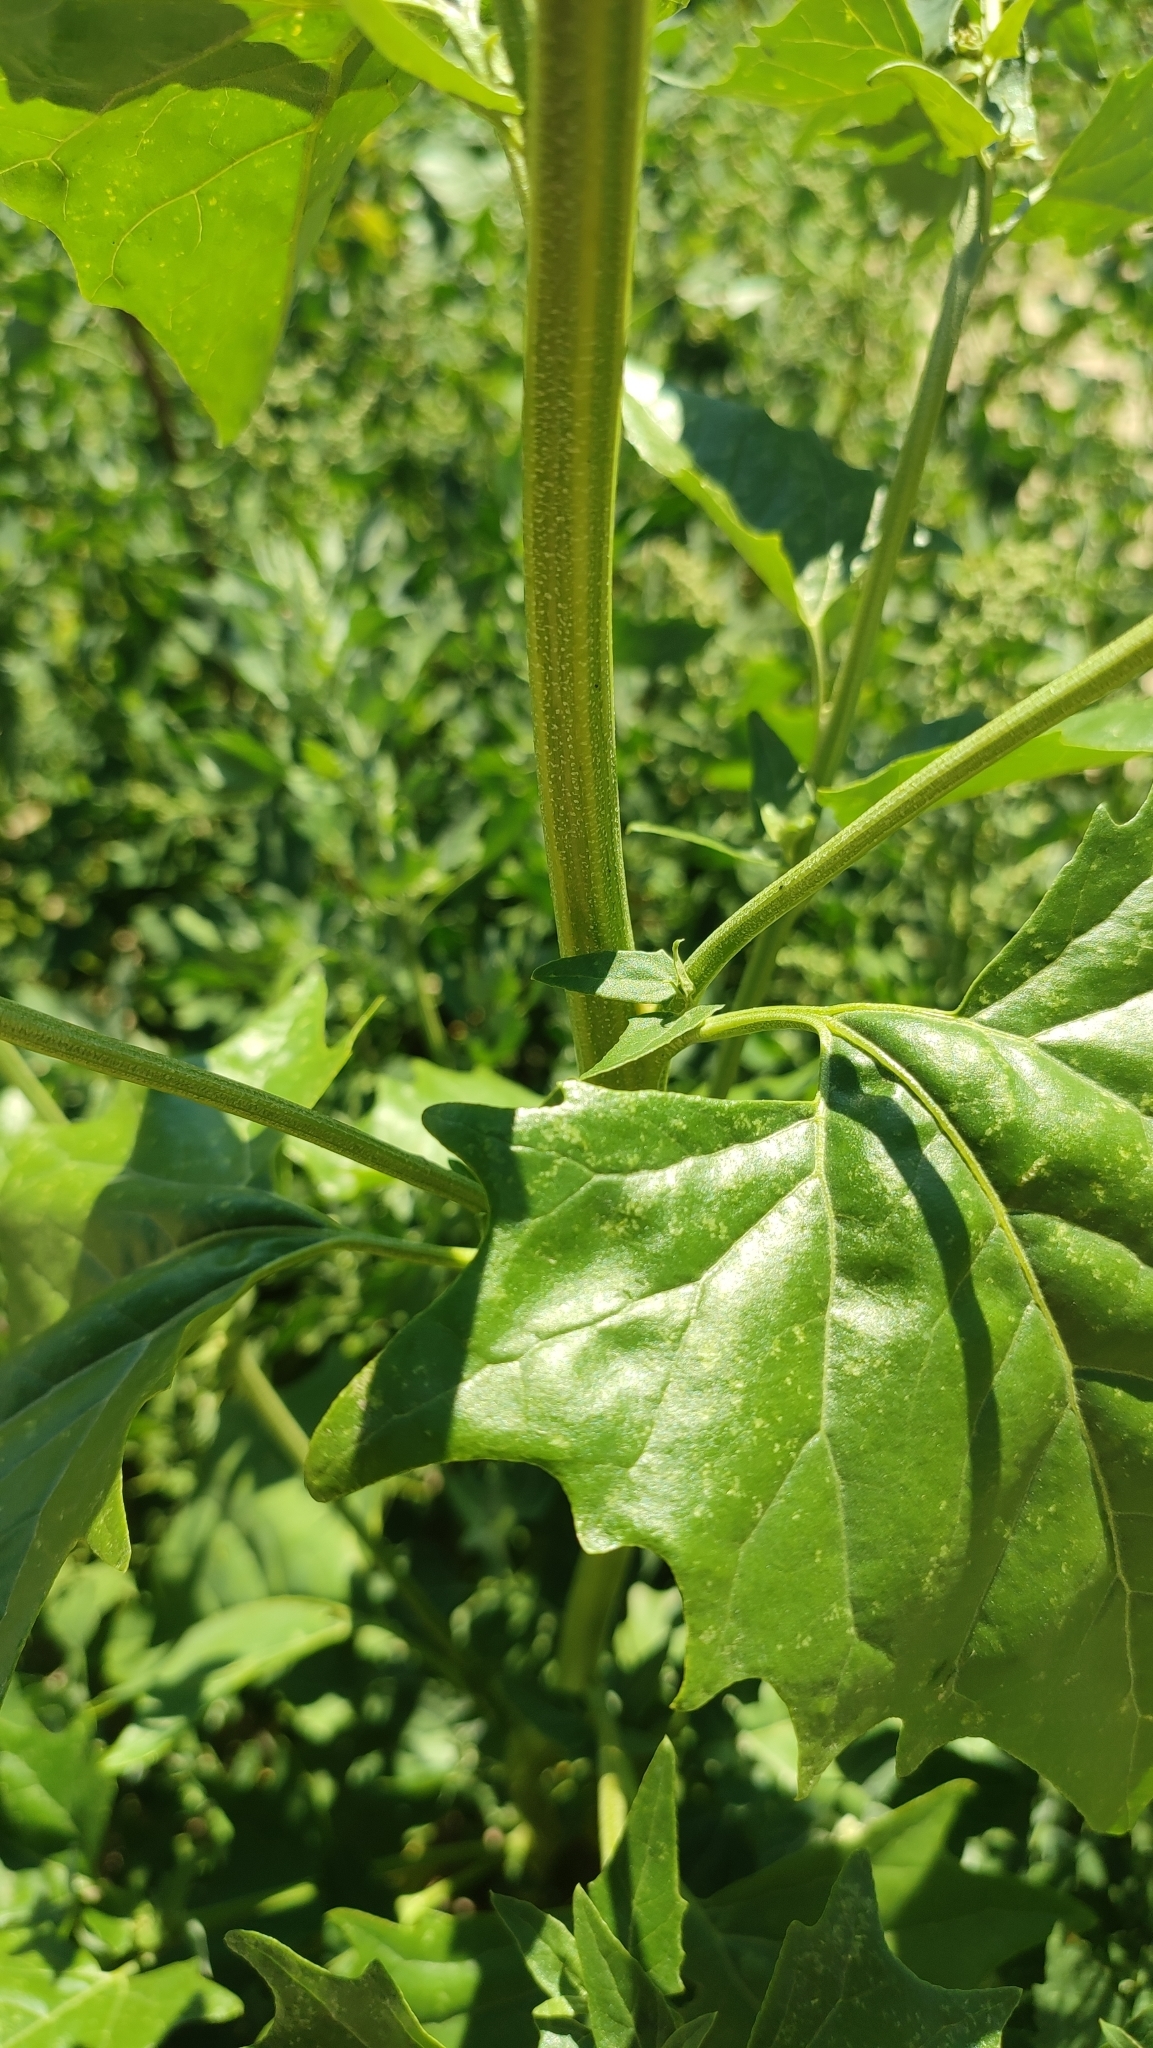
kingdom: Plantae
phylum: Tracheophyta
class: Magnoliopsida
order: Caryophyllales
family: Amaranthaceae
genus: Atriplex
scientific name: Atriplex sagittata
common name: Purple orache
